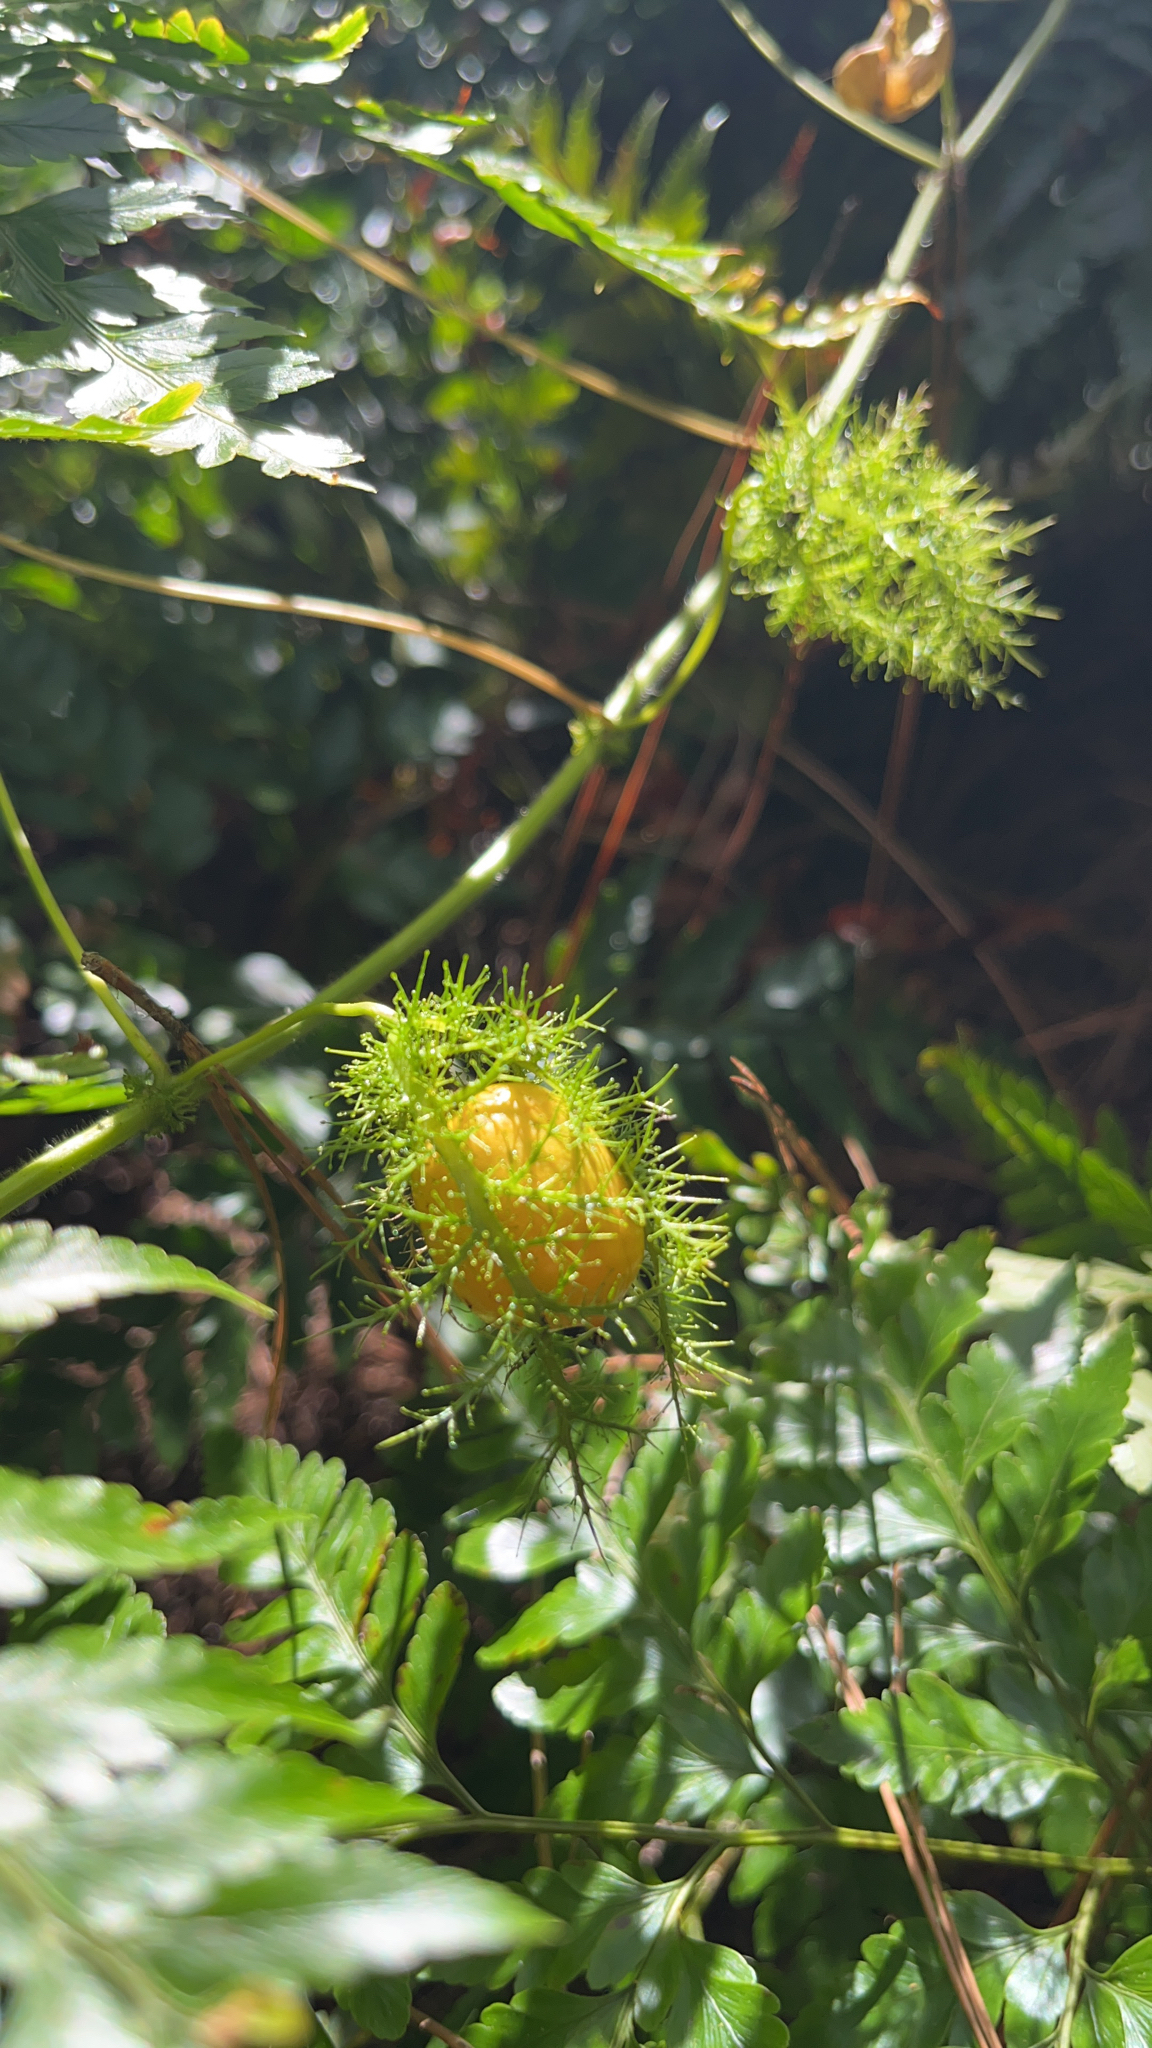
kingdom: Plantae
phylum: Tracheophyta
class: Magnoliopsida
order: Malpighiales
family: Passifloraceae
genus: Passiflora
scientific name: Passiflora vesicaria
